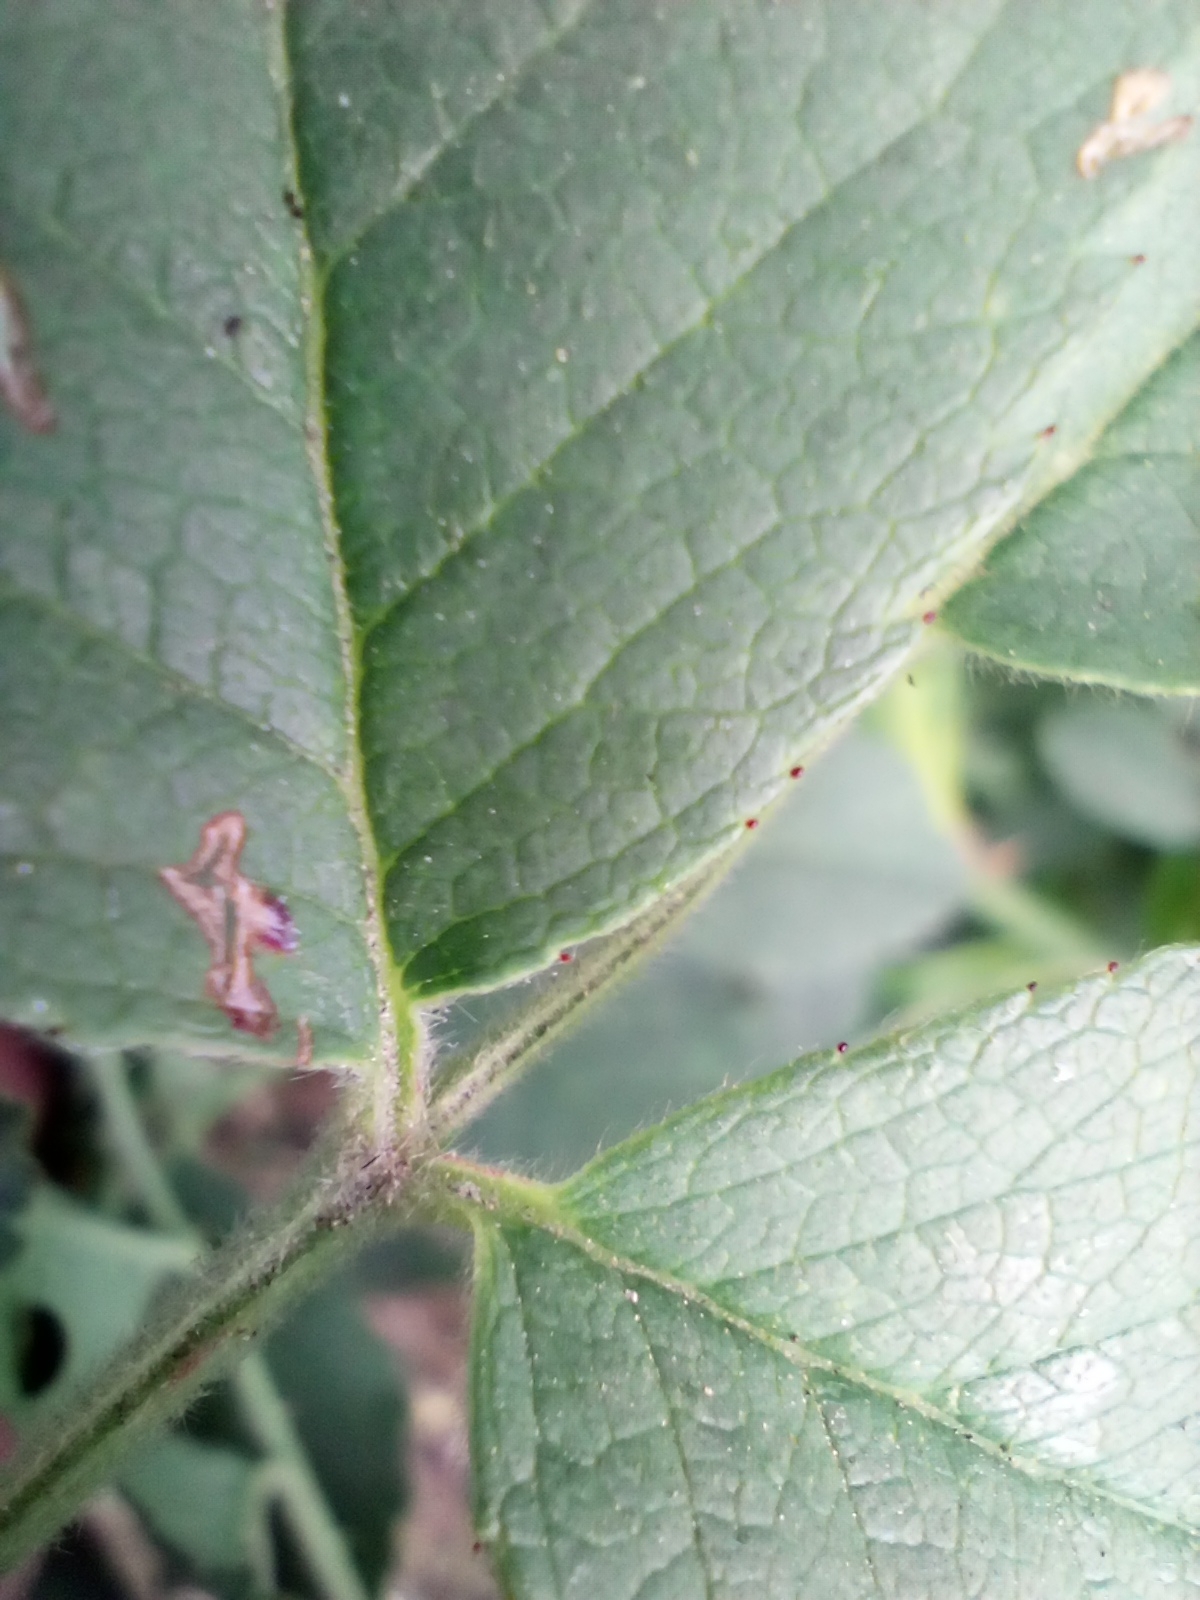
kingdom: Plantae
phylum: Tracheophyta
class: Magnoliopsida
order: Rosales
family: Rosaceae
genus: Rosa
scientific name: Rosa corymbifera
